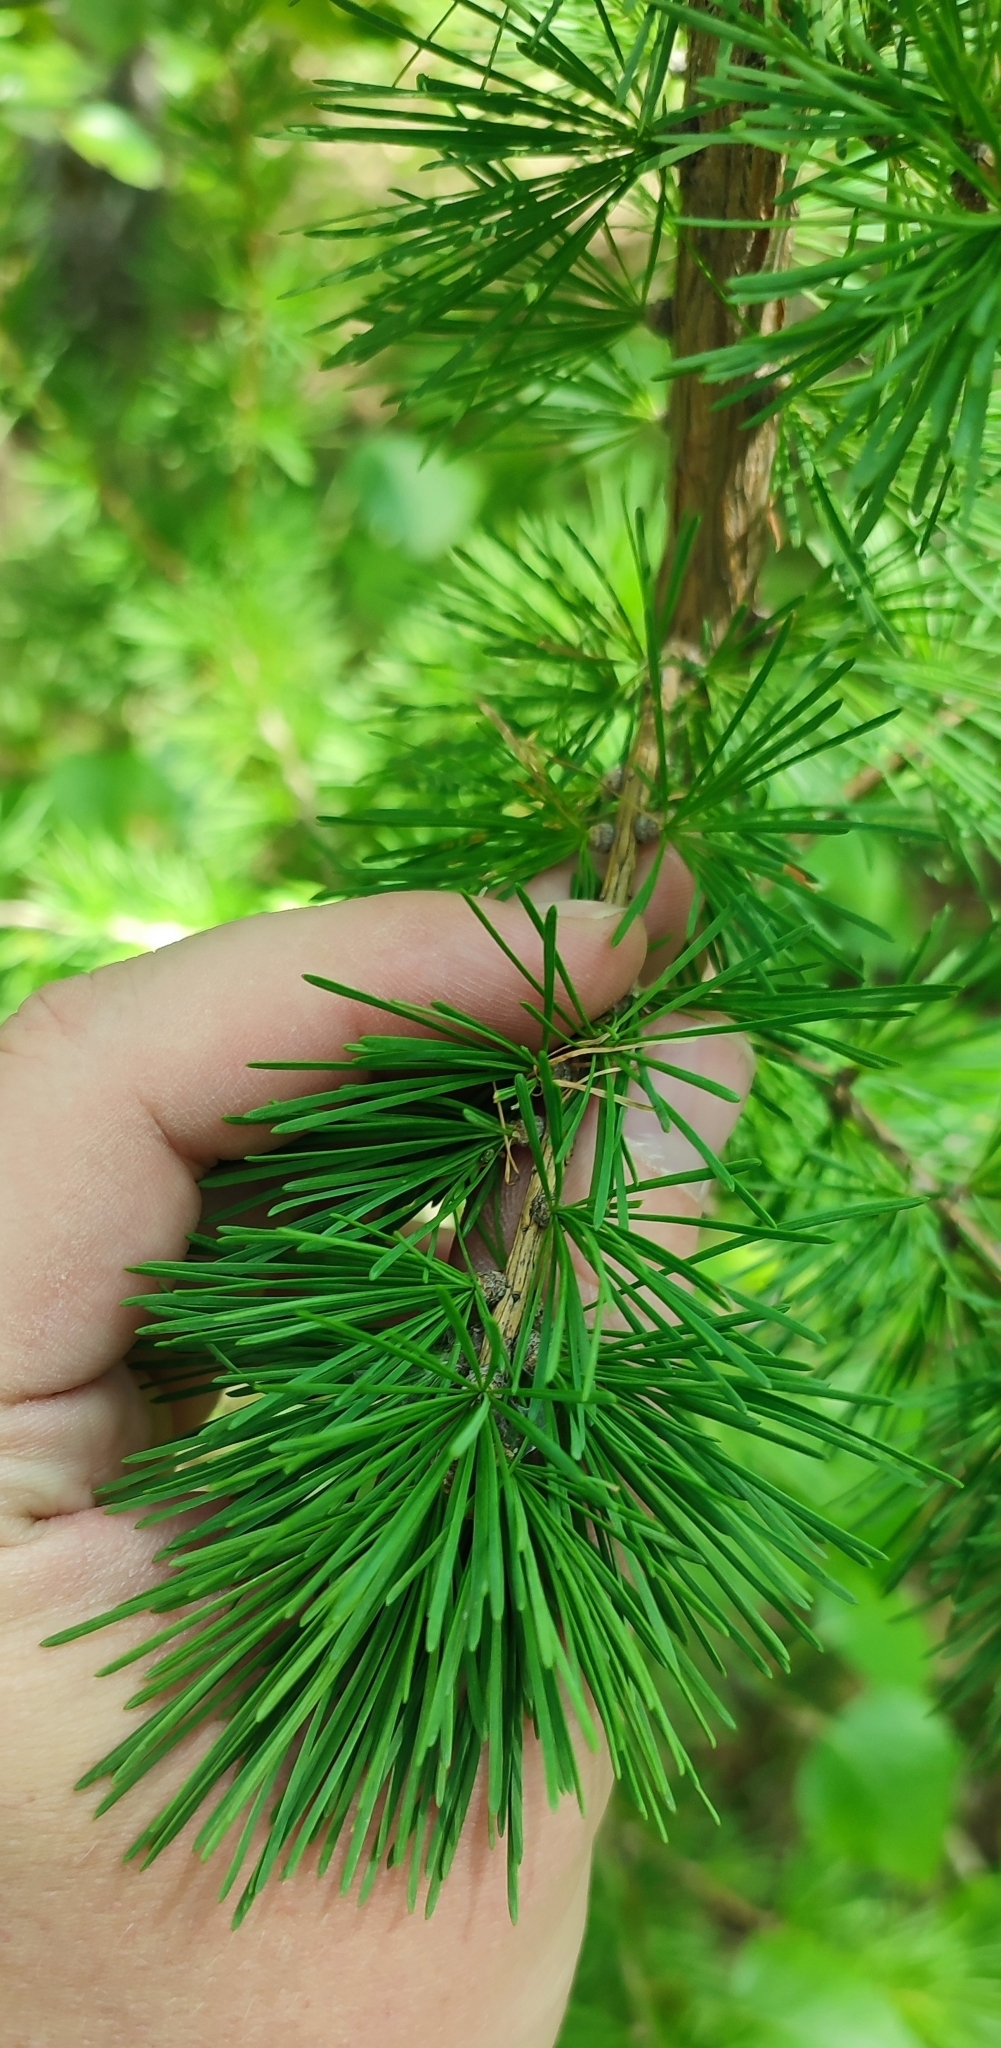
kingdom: Plantae
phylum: Tracheophyta
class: Pinopsida
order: Pinales
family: Pinaceae
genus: Larix
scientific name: Larix sibirica
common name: Siberian larch
